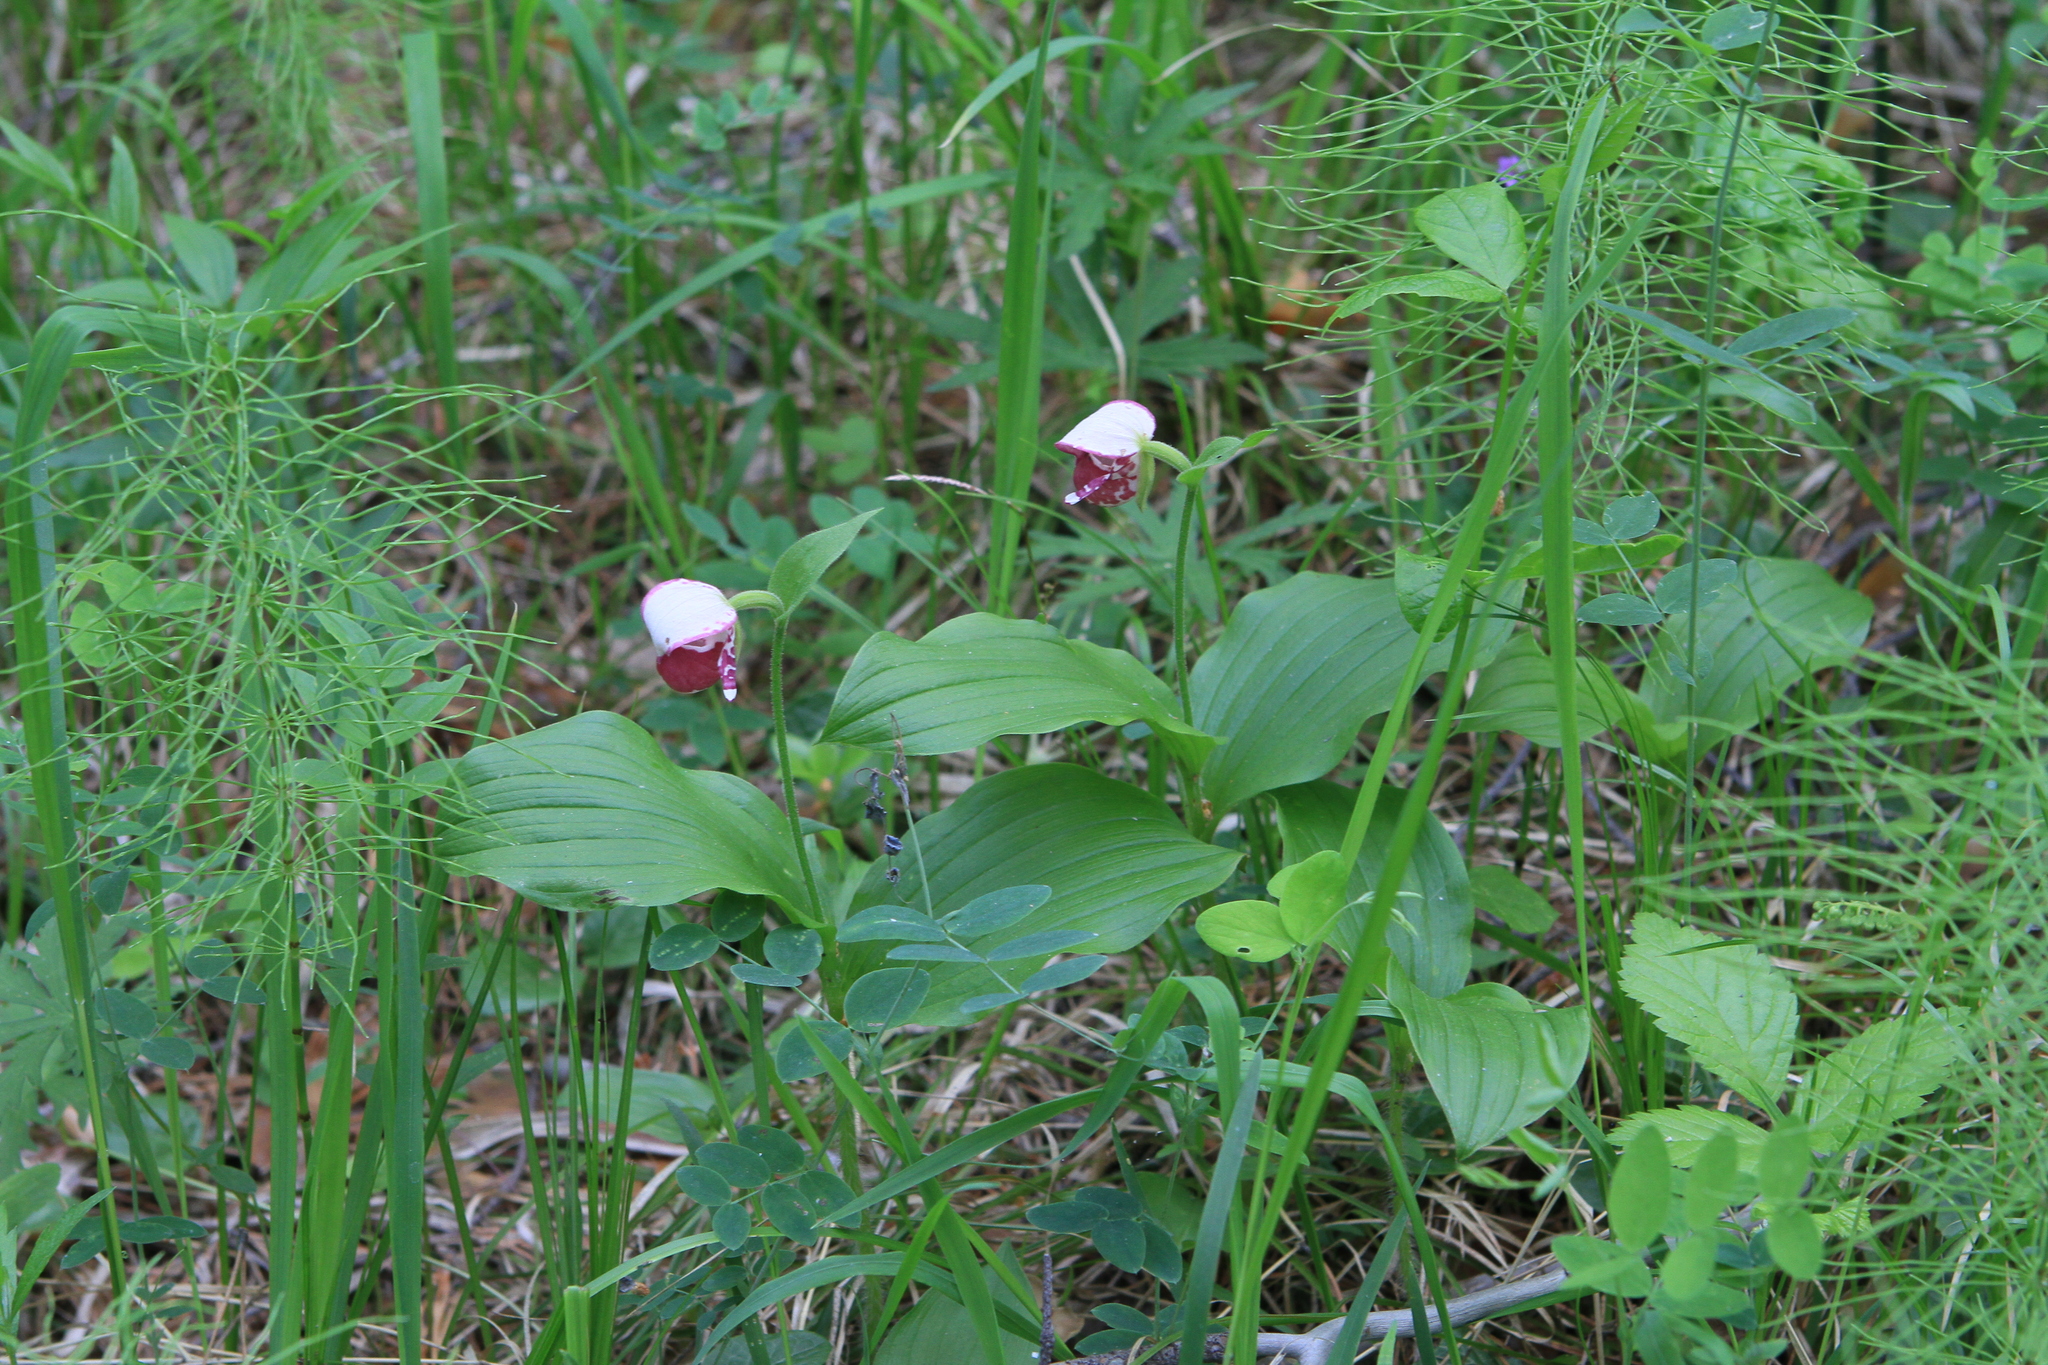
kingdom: Plantae
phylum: Tracheophyta
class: Liliopsida
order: Asparagales
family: Orchidaceae
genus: Cypripedium
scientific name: Cypripedium guttatum
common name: Pink lady slipper
